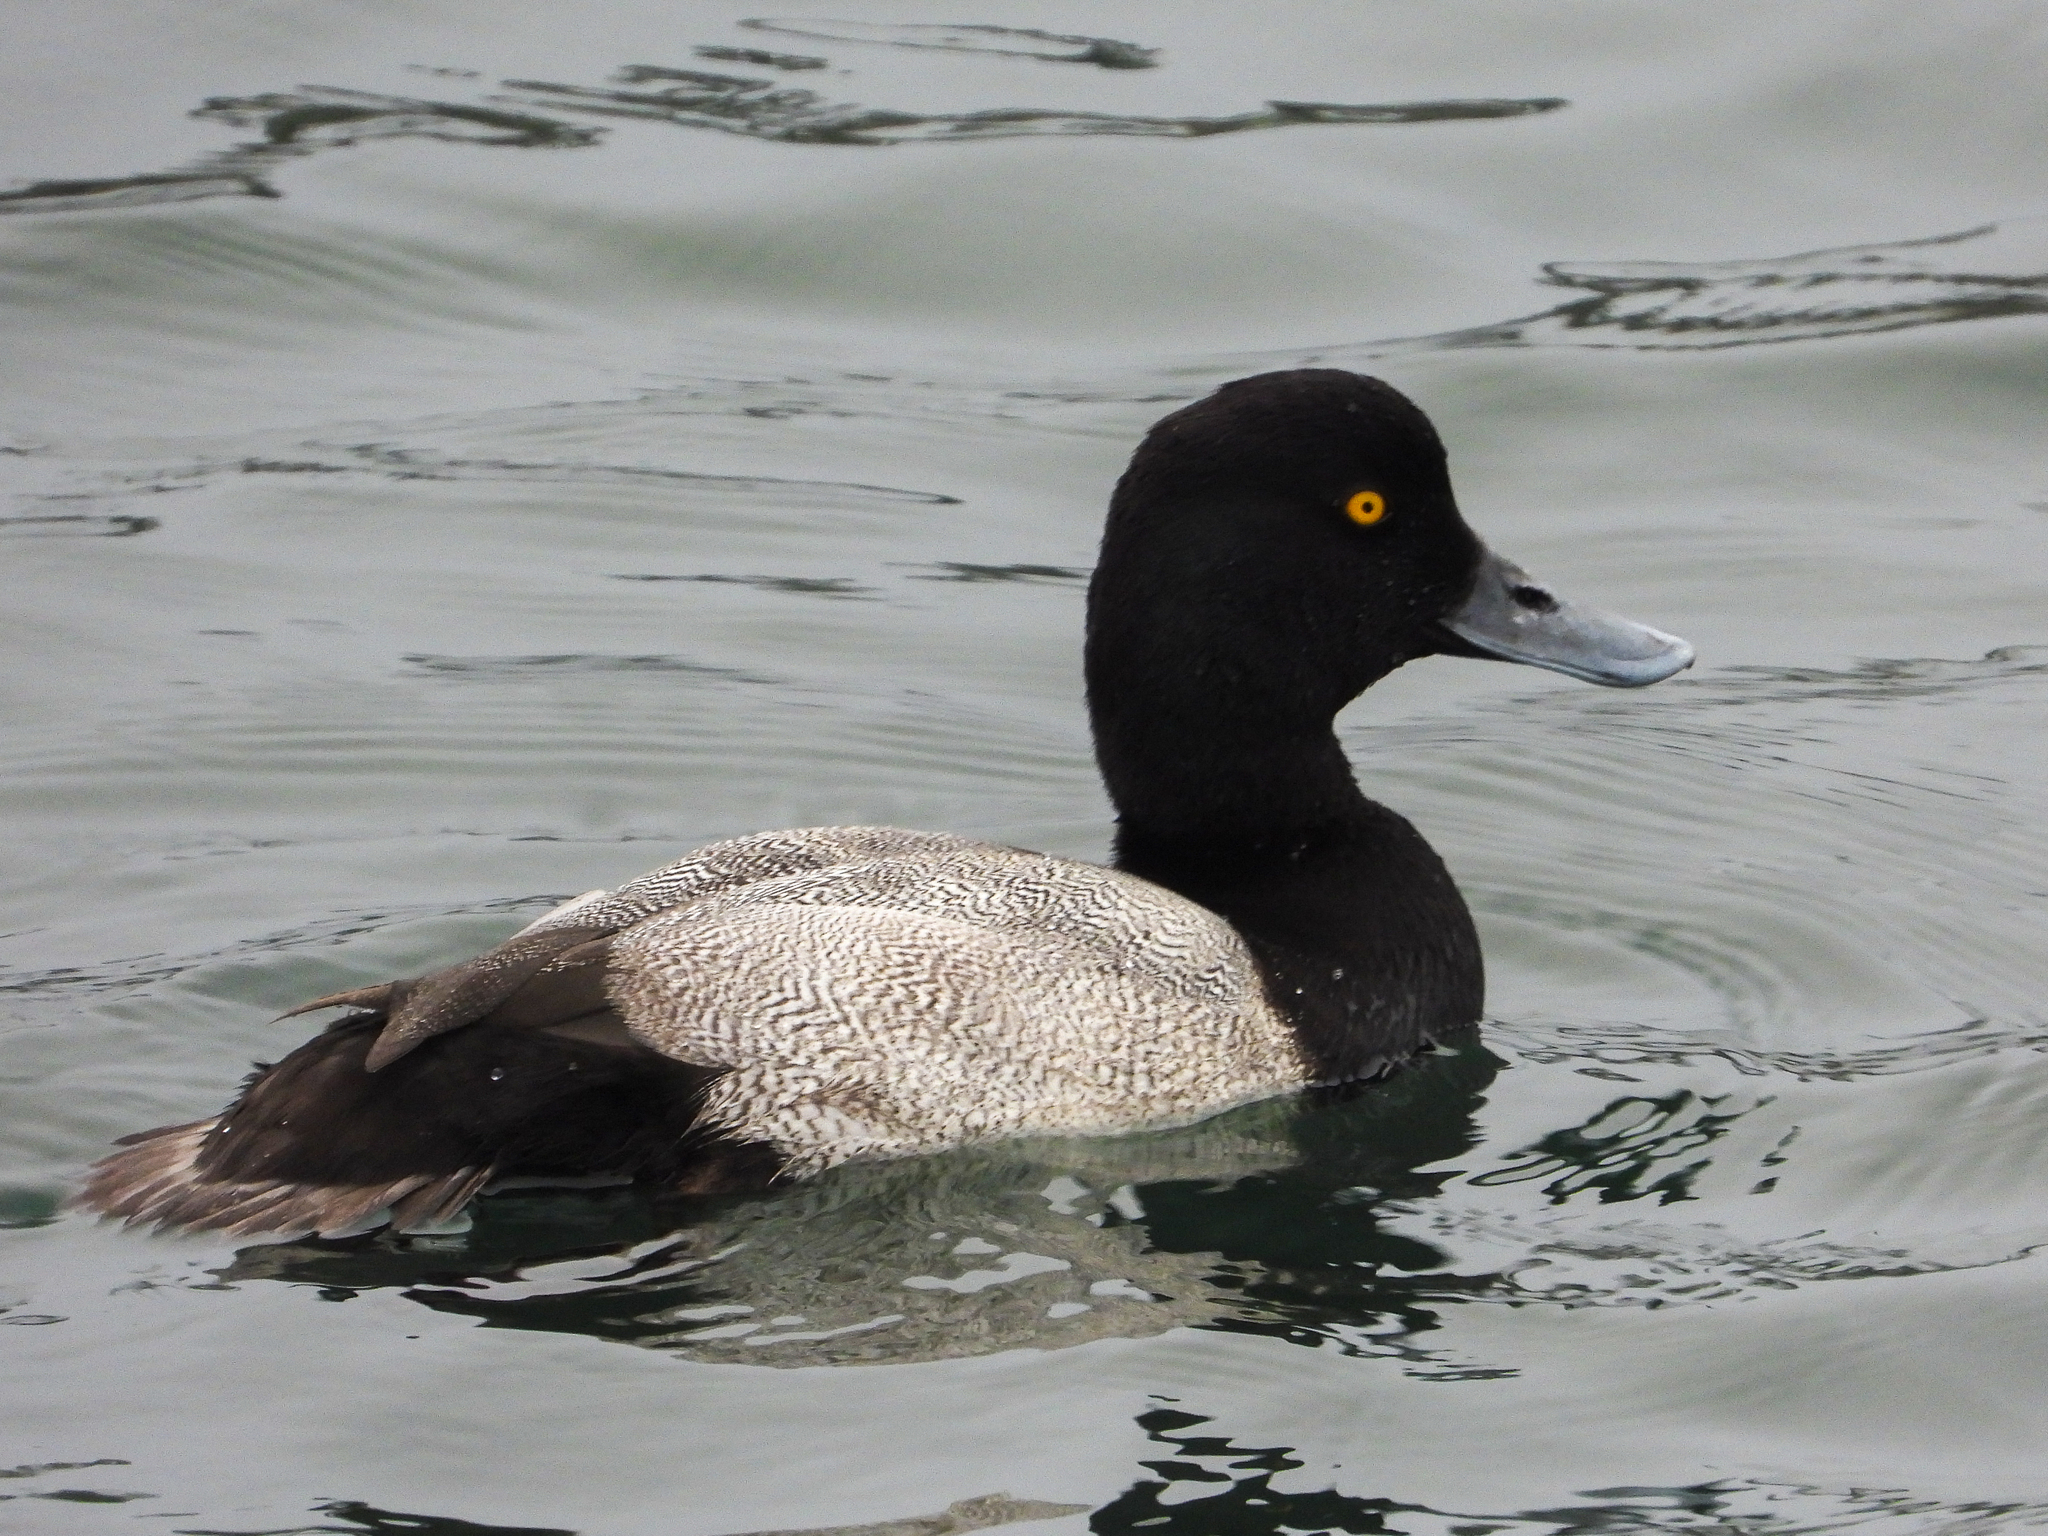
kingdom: Animalia
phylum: Chordata
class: Aves
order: Anseriformes
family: Anatidae
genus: Aythya
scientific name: Aythya marila
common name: Greater scaup
